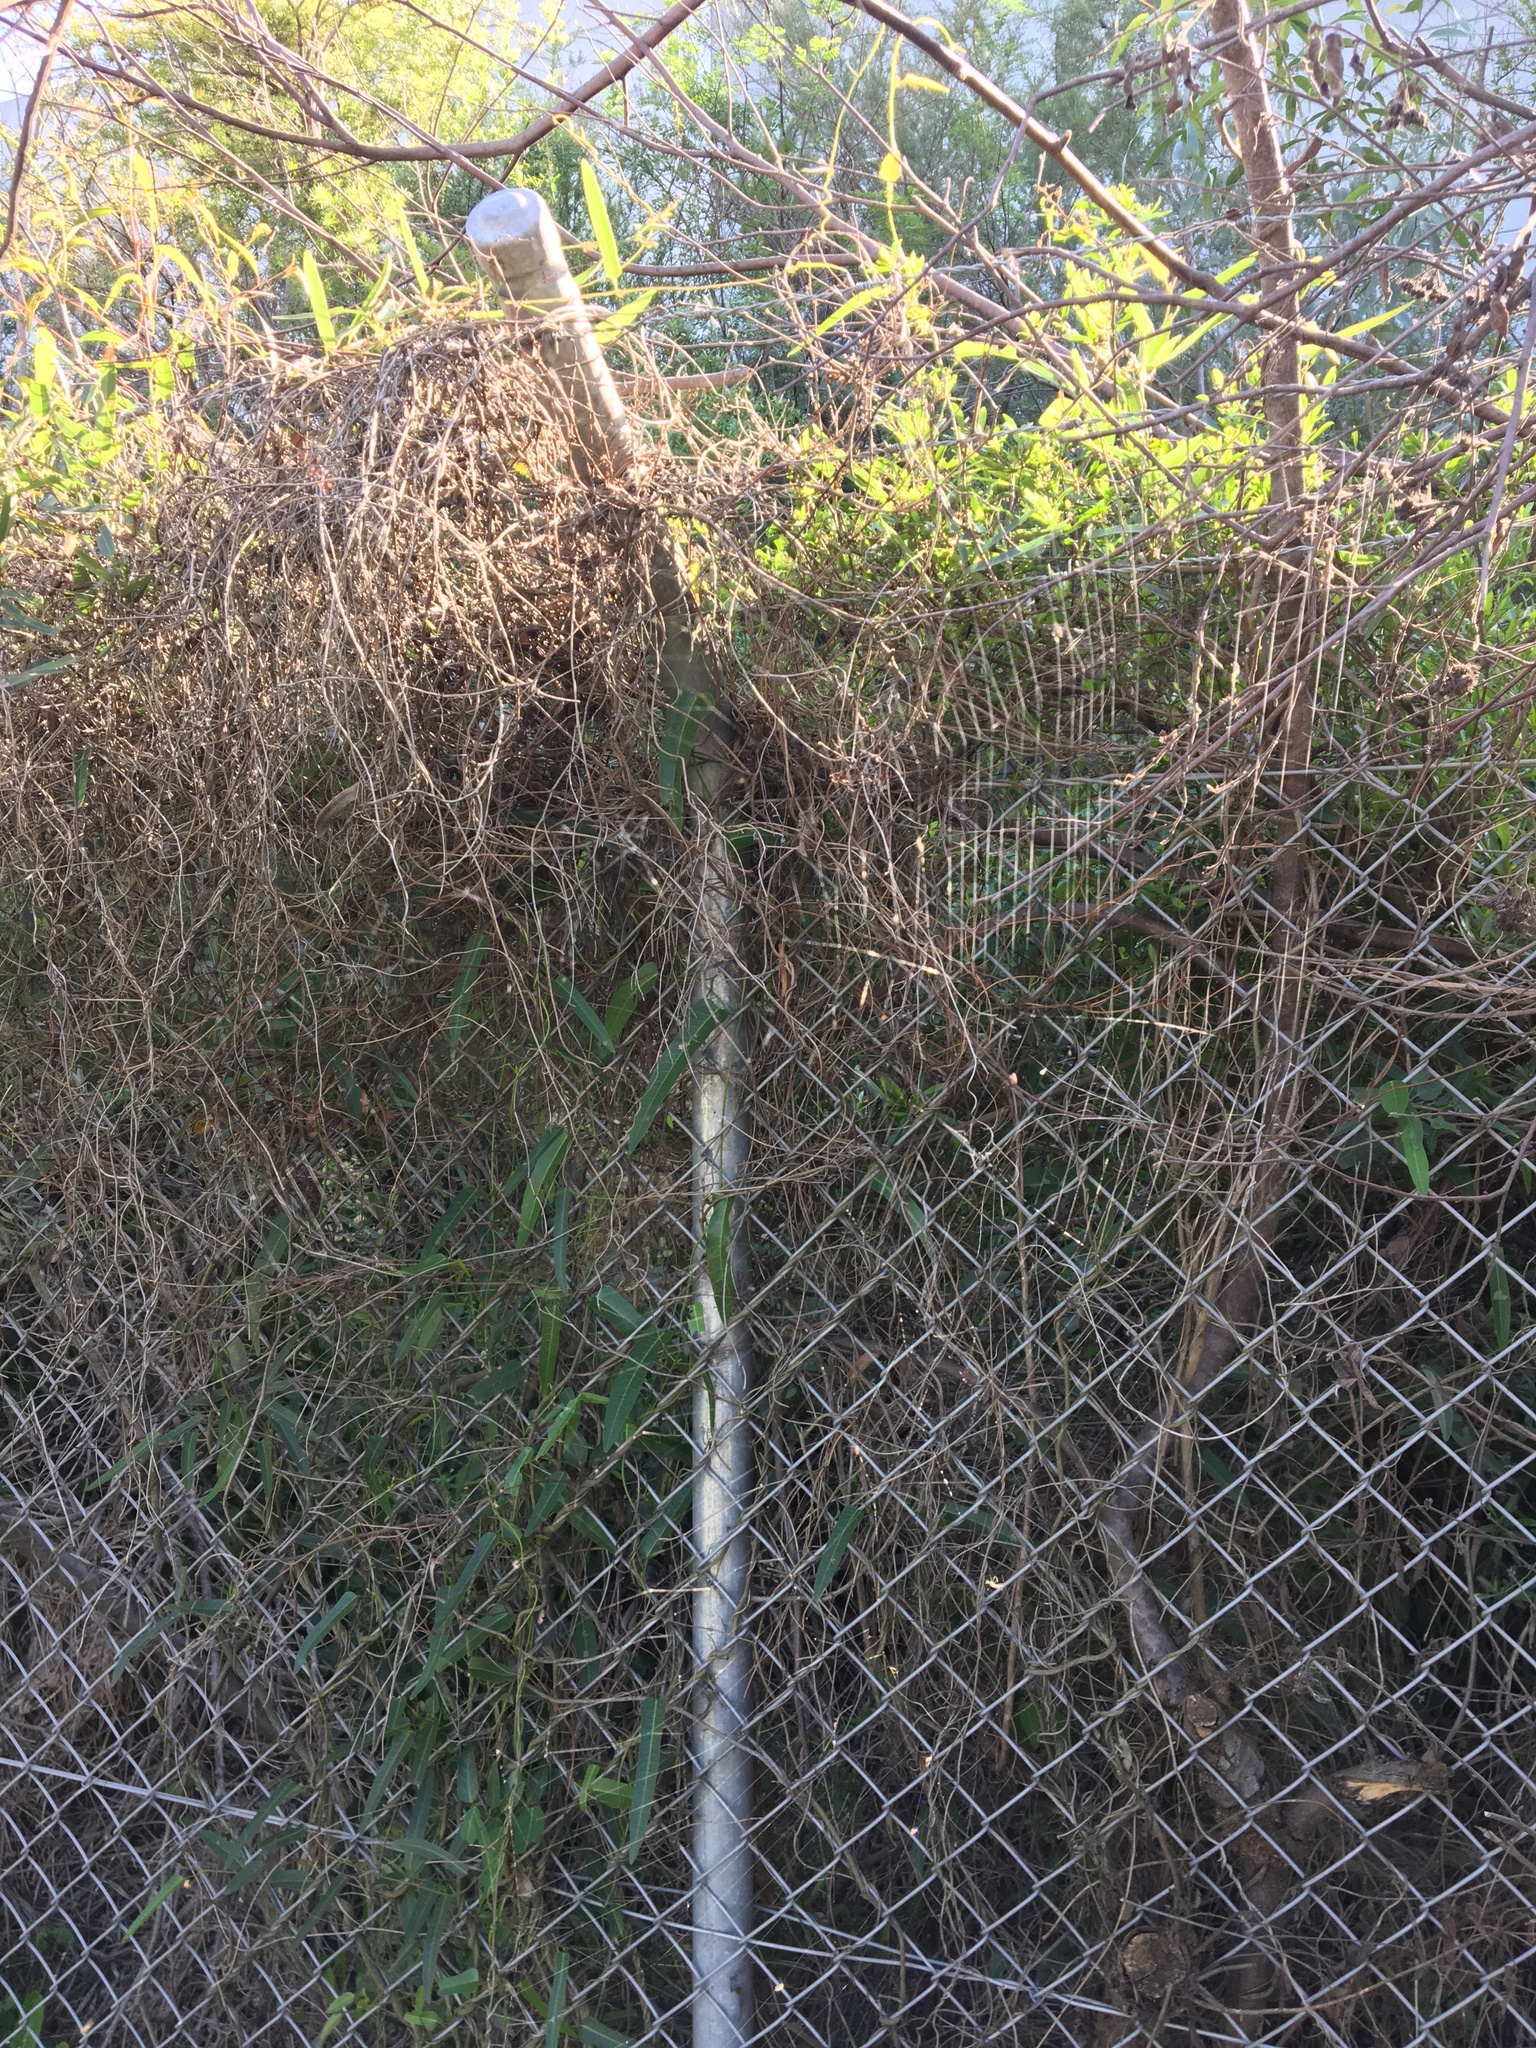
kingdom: Plantae
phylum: Tracheophyta
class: Magnoliopsida
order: Fabales
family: Fabaceae
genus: Hardenbergia
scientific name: Hardenbergia violacea
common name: Coral-pea
